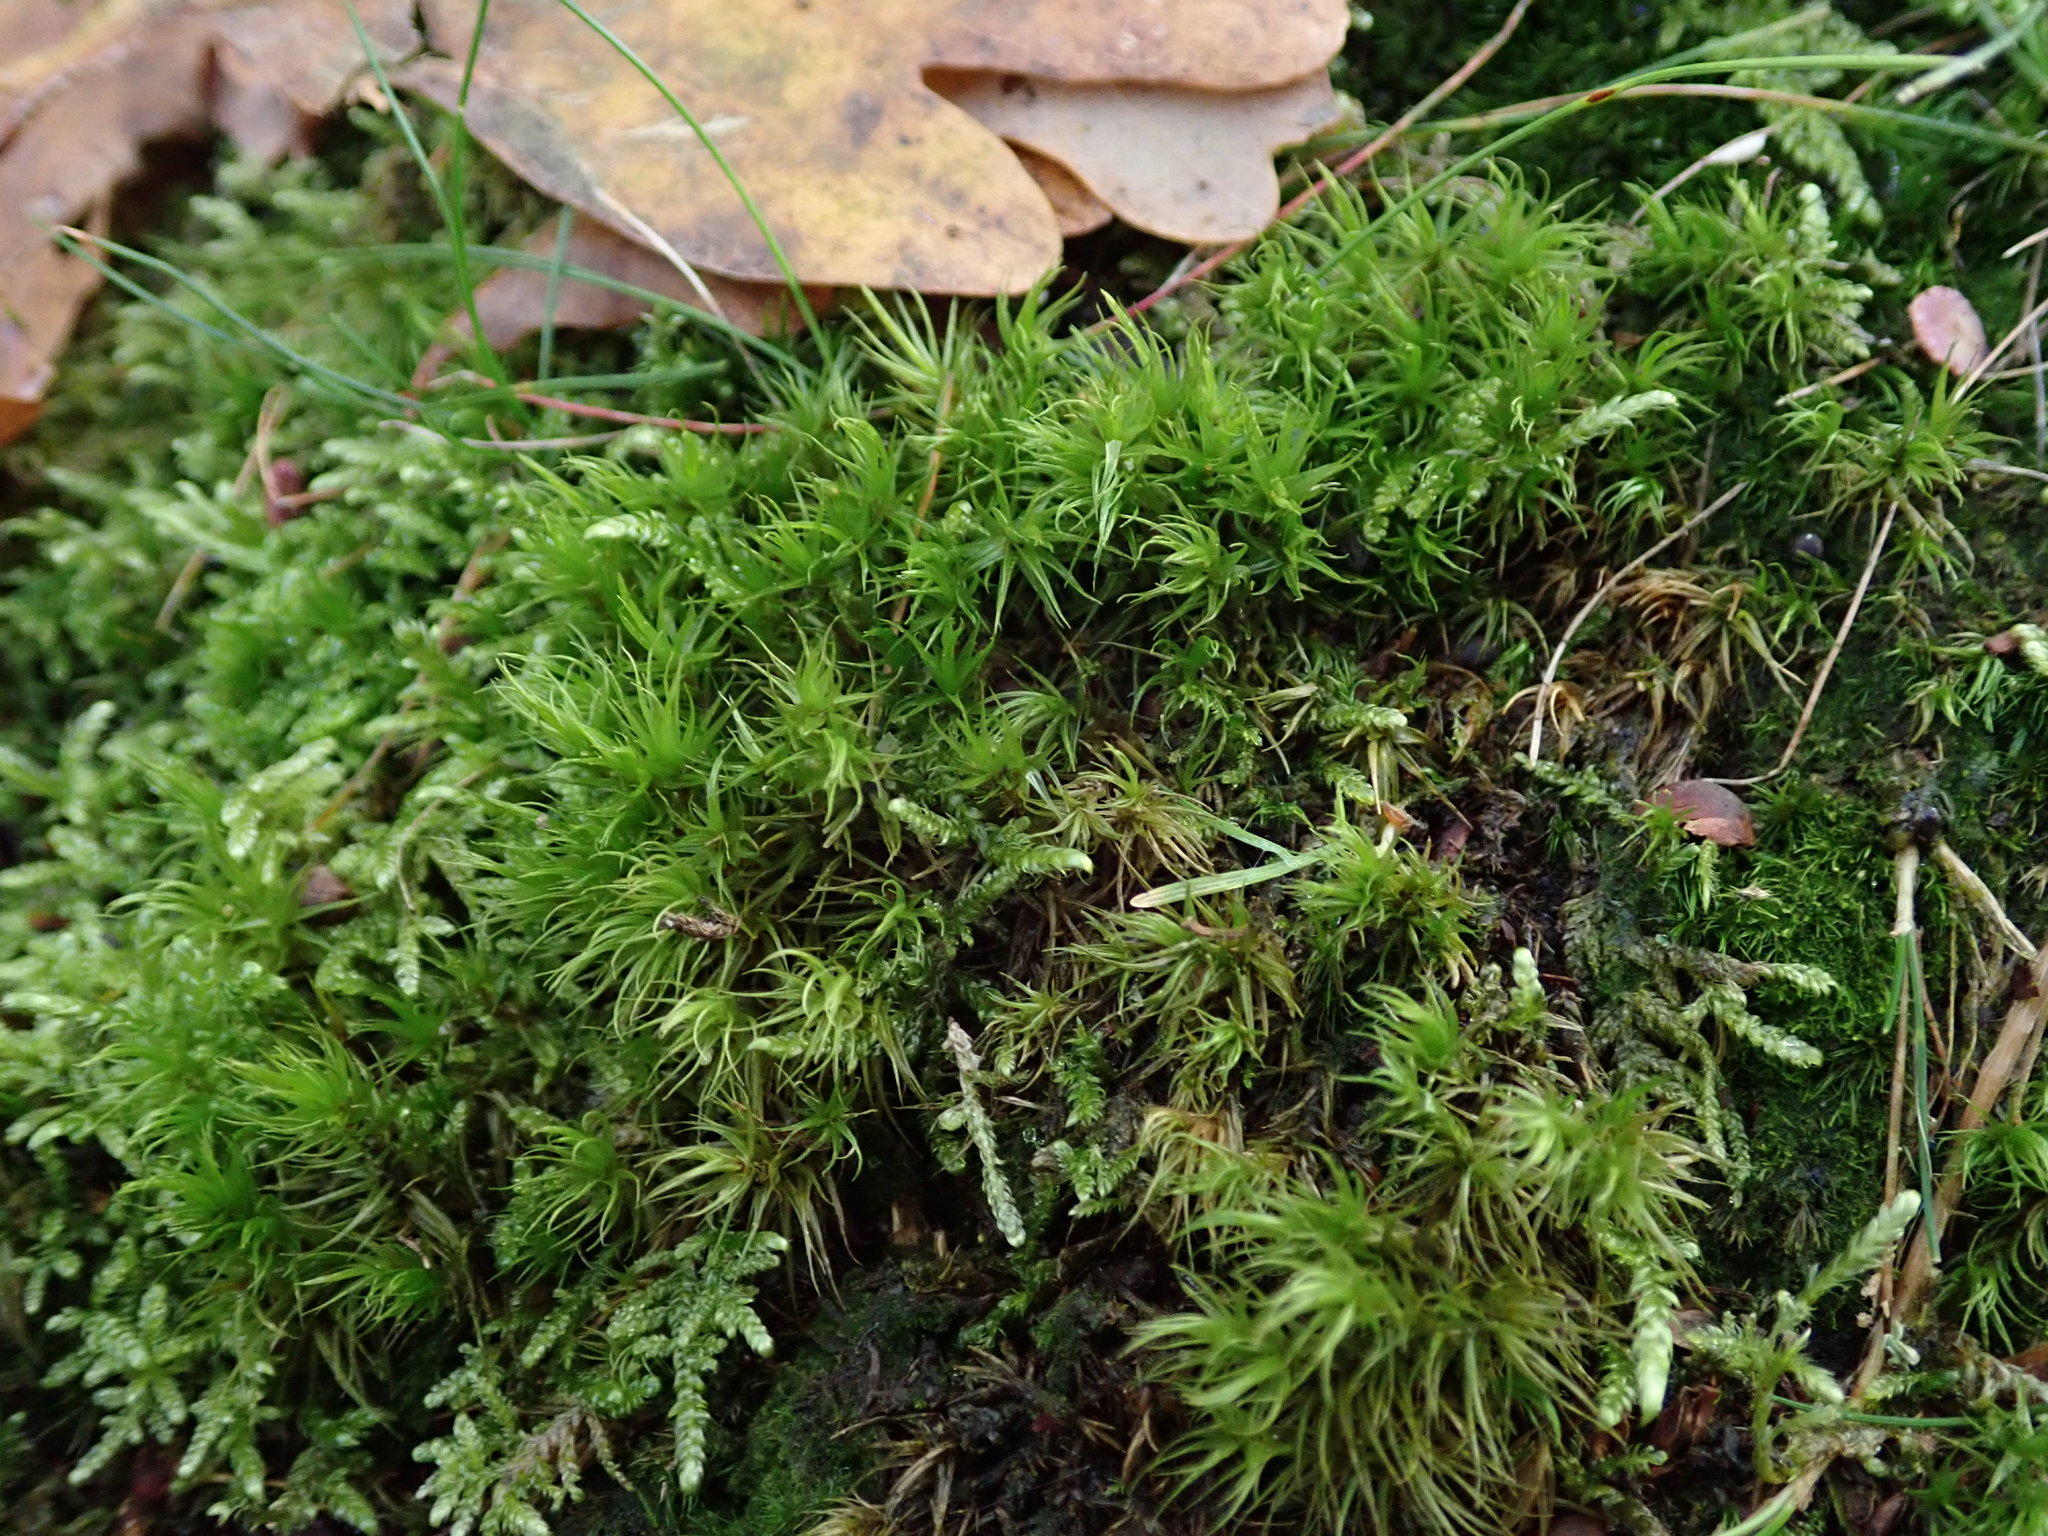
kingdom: Plantae
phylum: Bryophyta
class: Bryopsida
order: Dicranales
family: Dicranaceae
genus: Dicranum
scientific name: Dicranum scoparium
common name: Broom fork-moss
